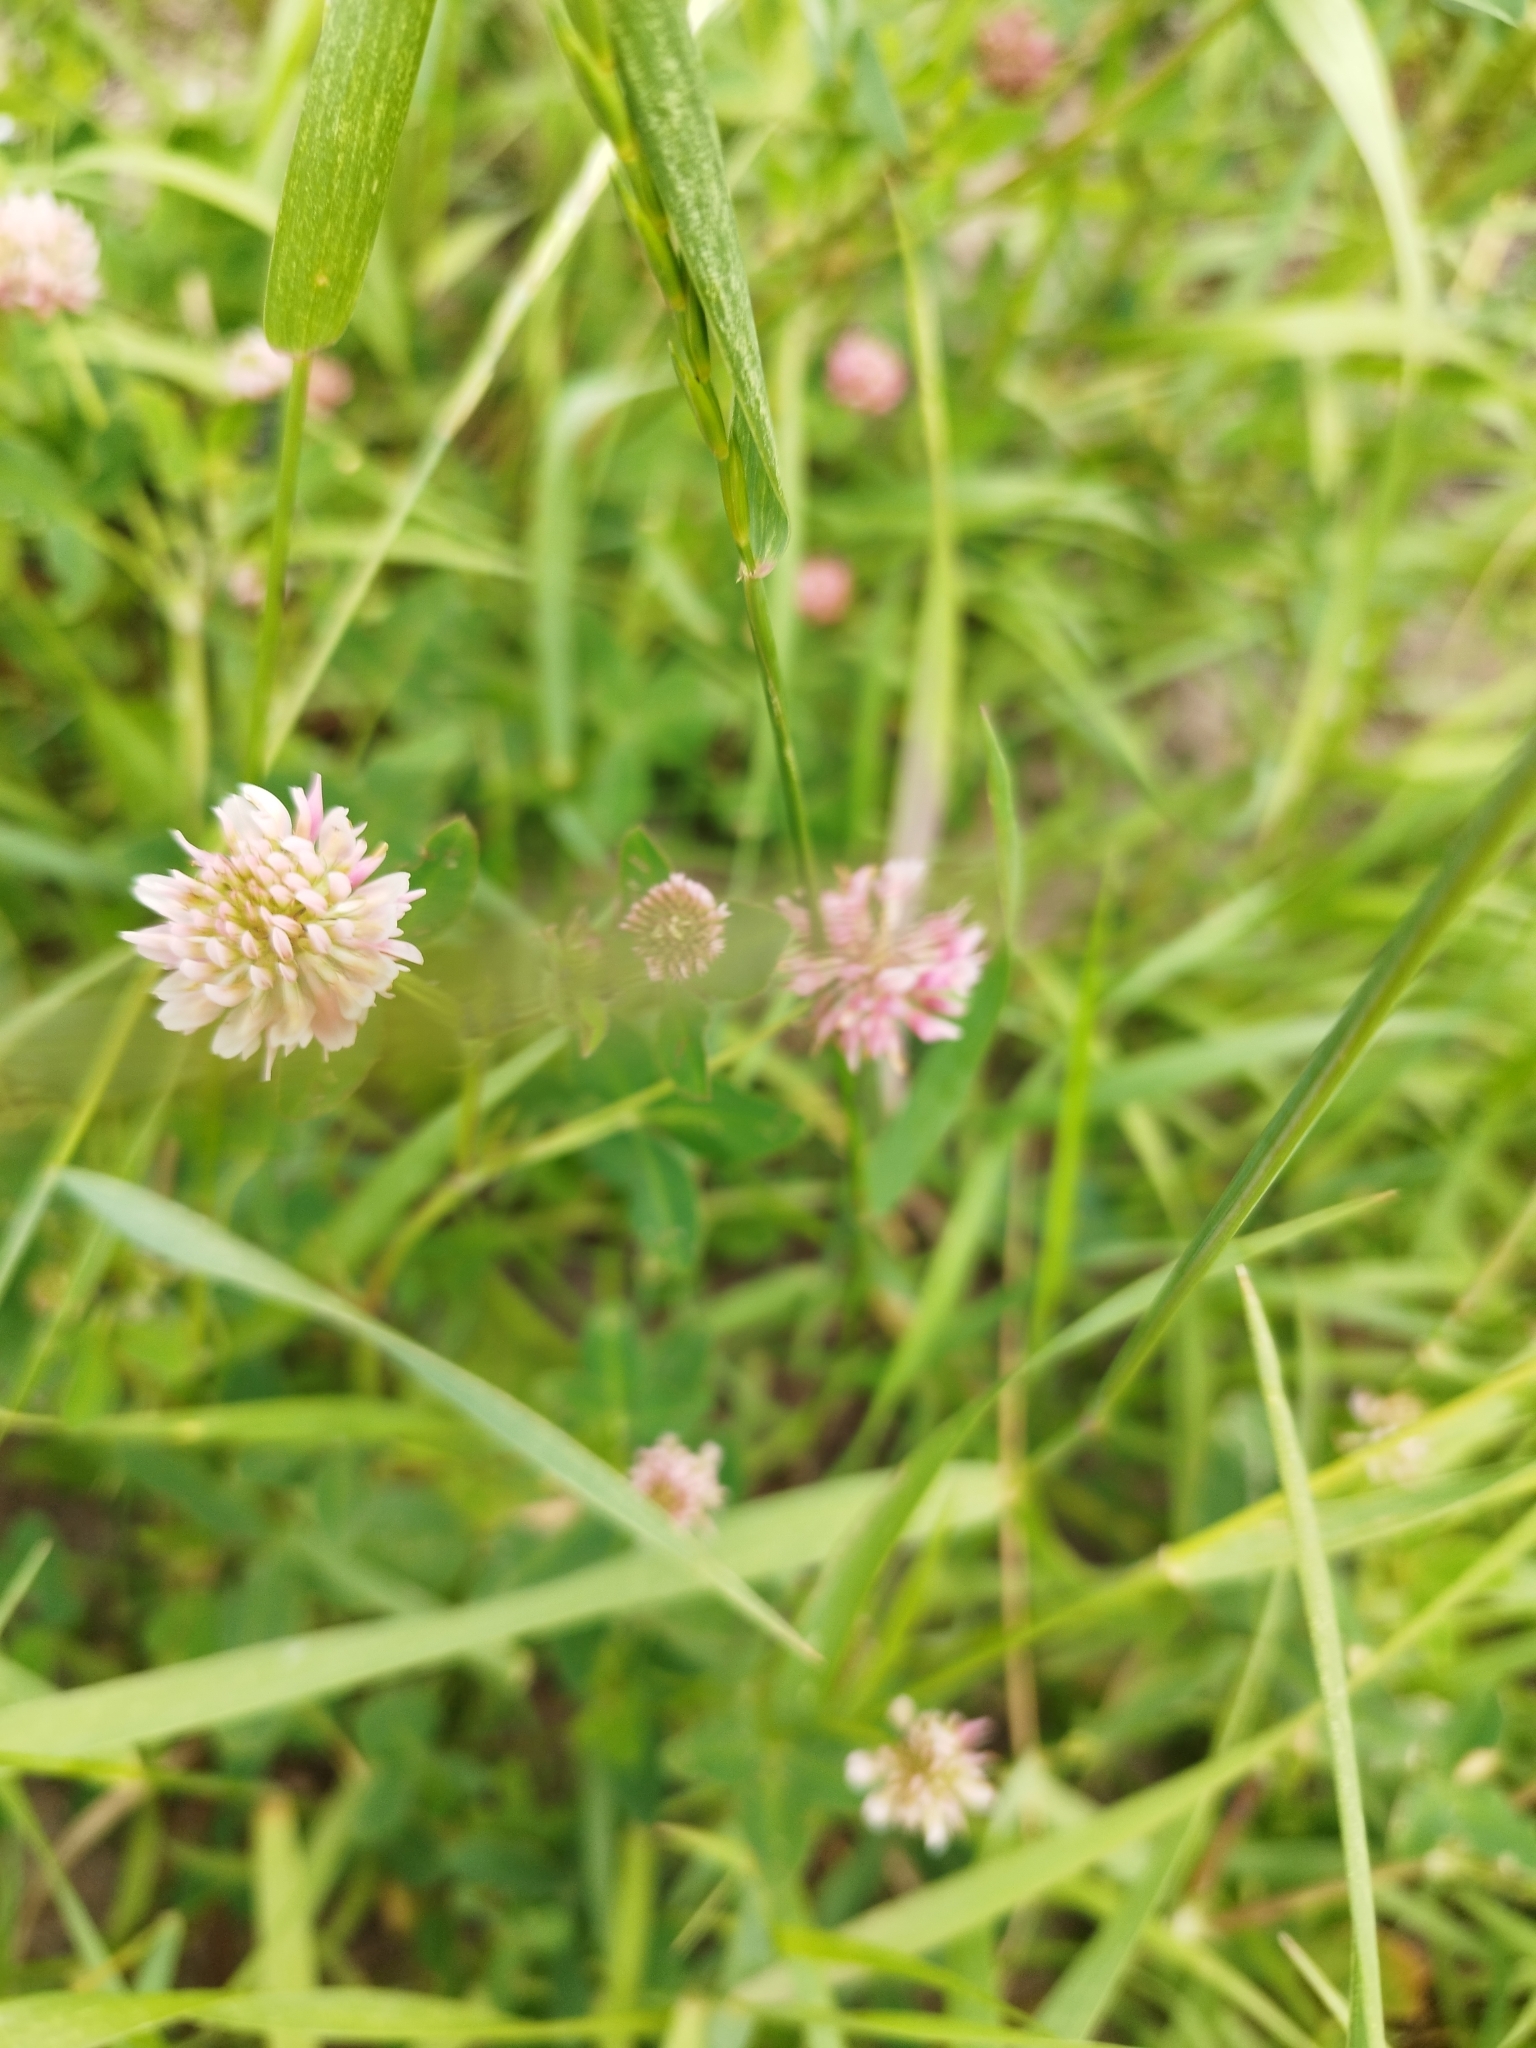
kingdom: Plantae
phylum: Tracheophyta
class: Magnoliopsida
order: Fabales
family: Fabaceae
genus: Trifolium
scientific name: Trifolium hybridum
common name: Alsike clover
